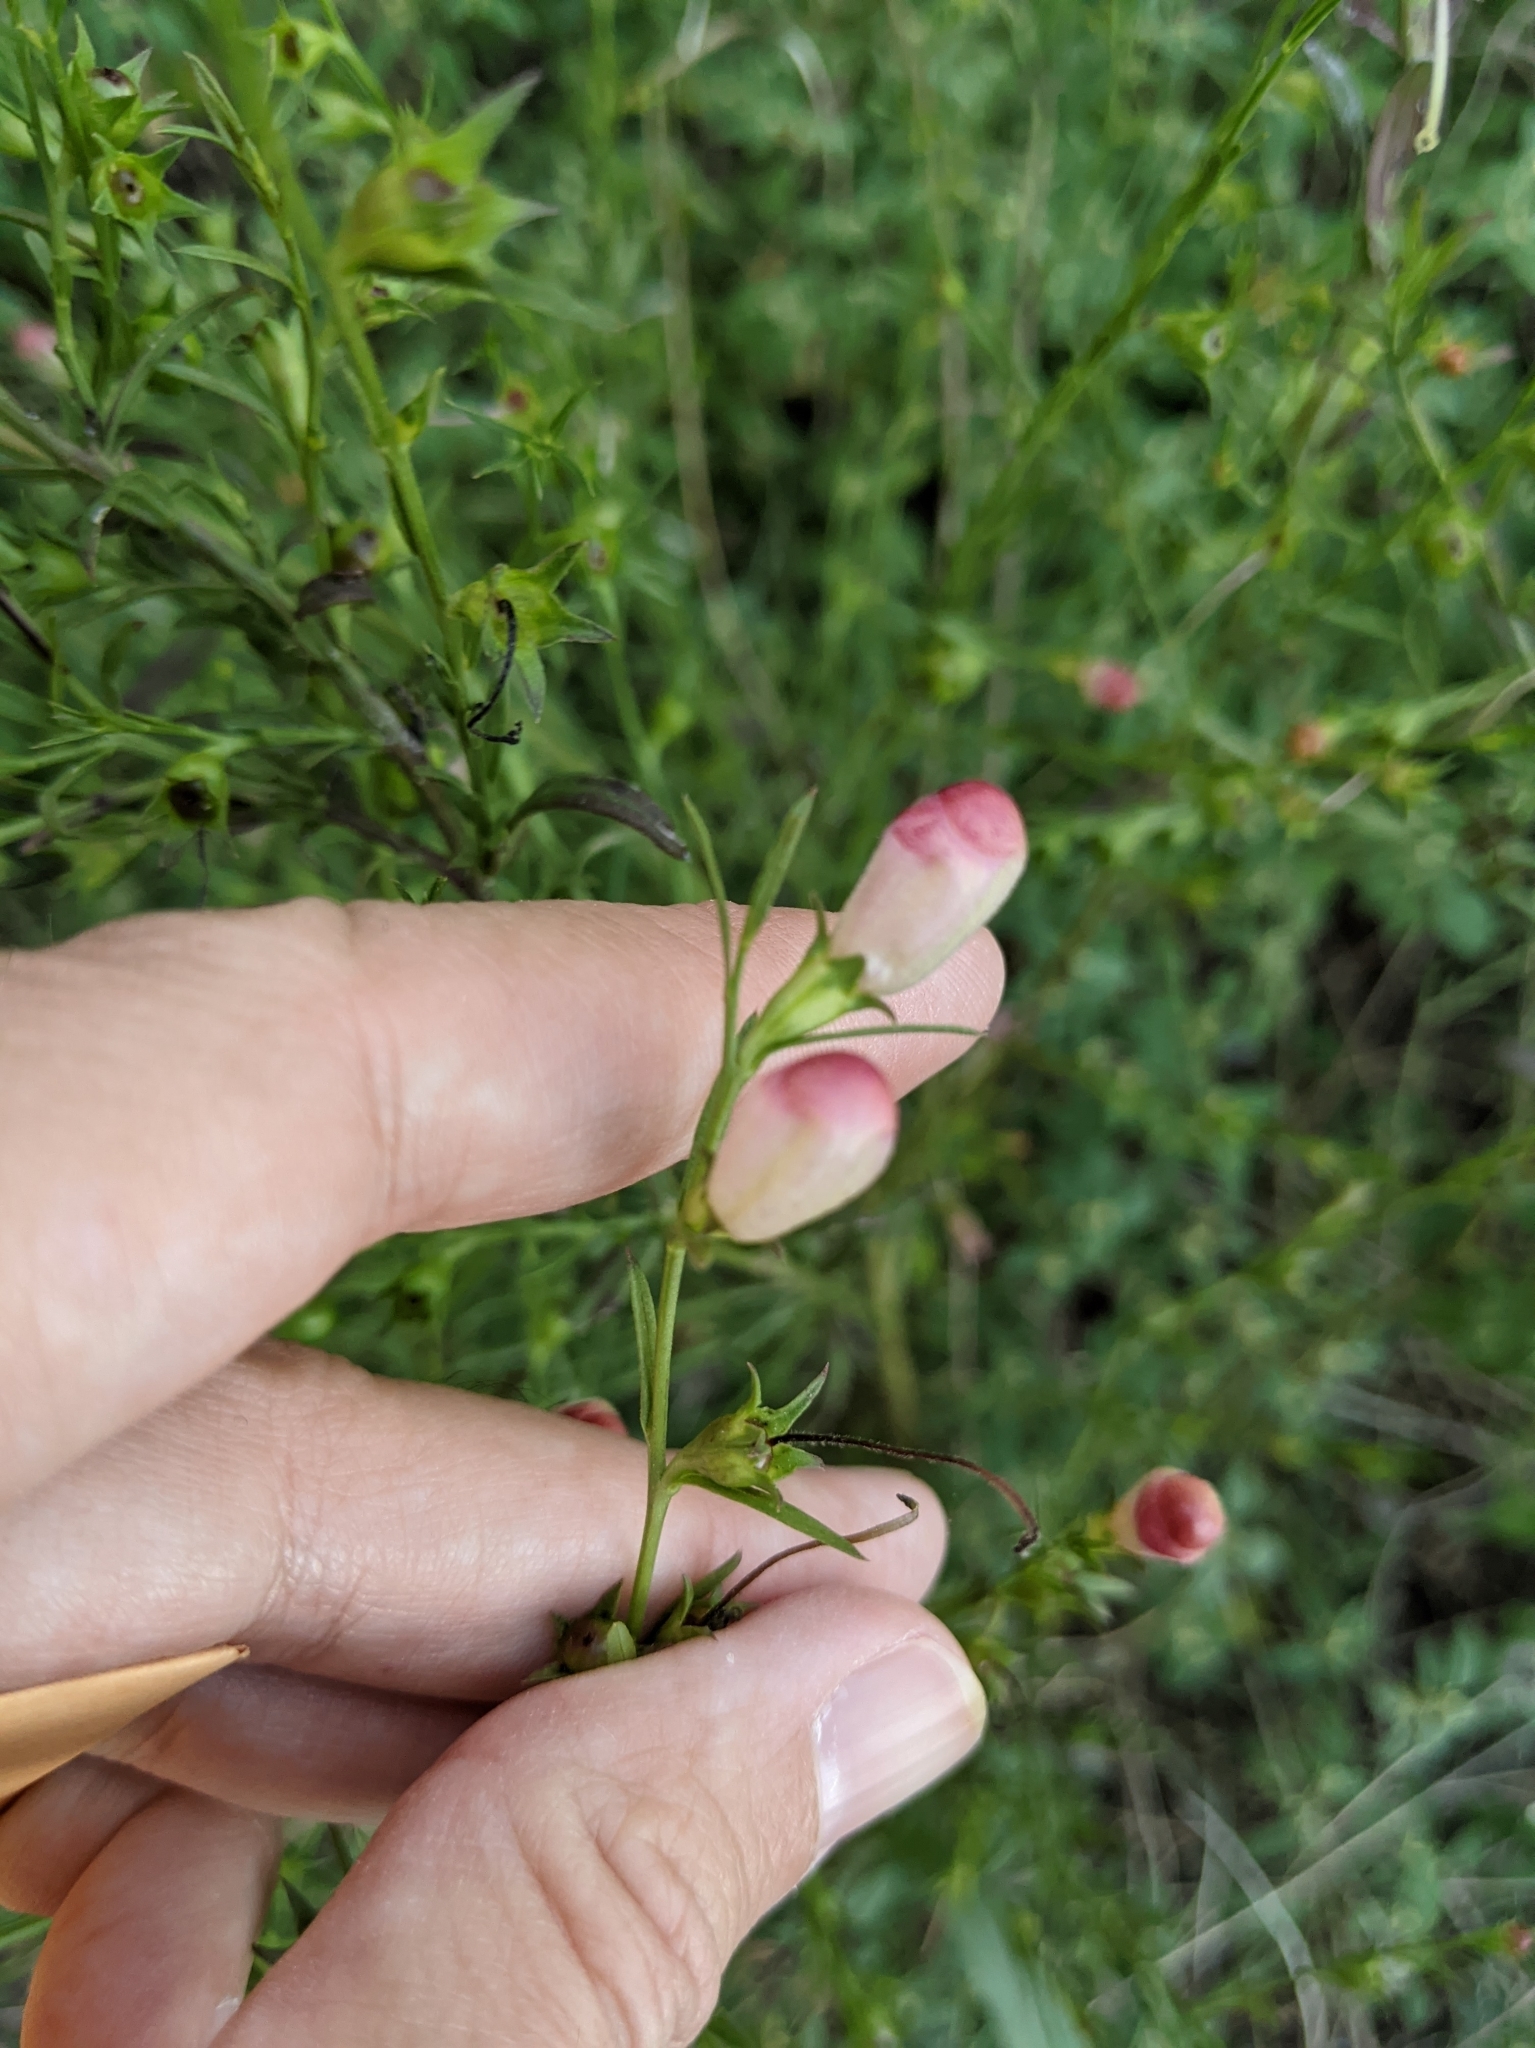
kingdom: Plantae
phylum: Tracheophyta
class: Magnoliopsida
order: Lamiales
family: Orobanchaceae
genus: Agalinis
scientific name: Agalinis heterophylla
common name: Prairie agalinis
